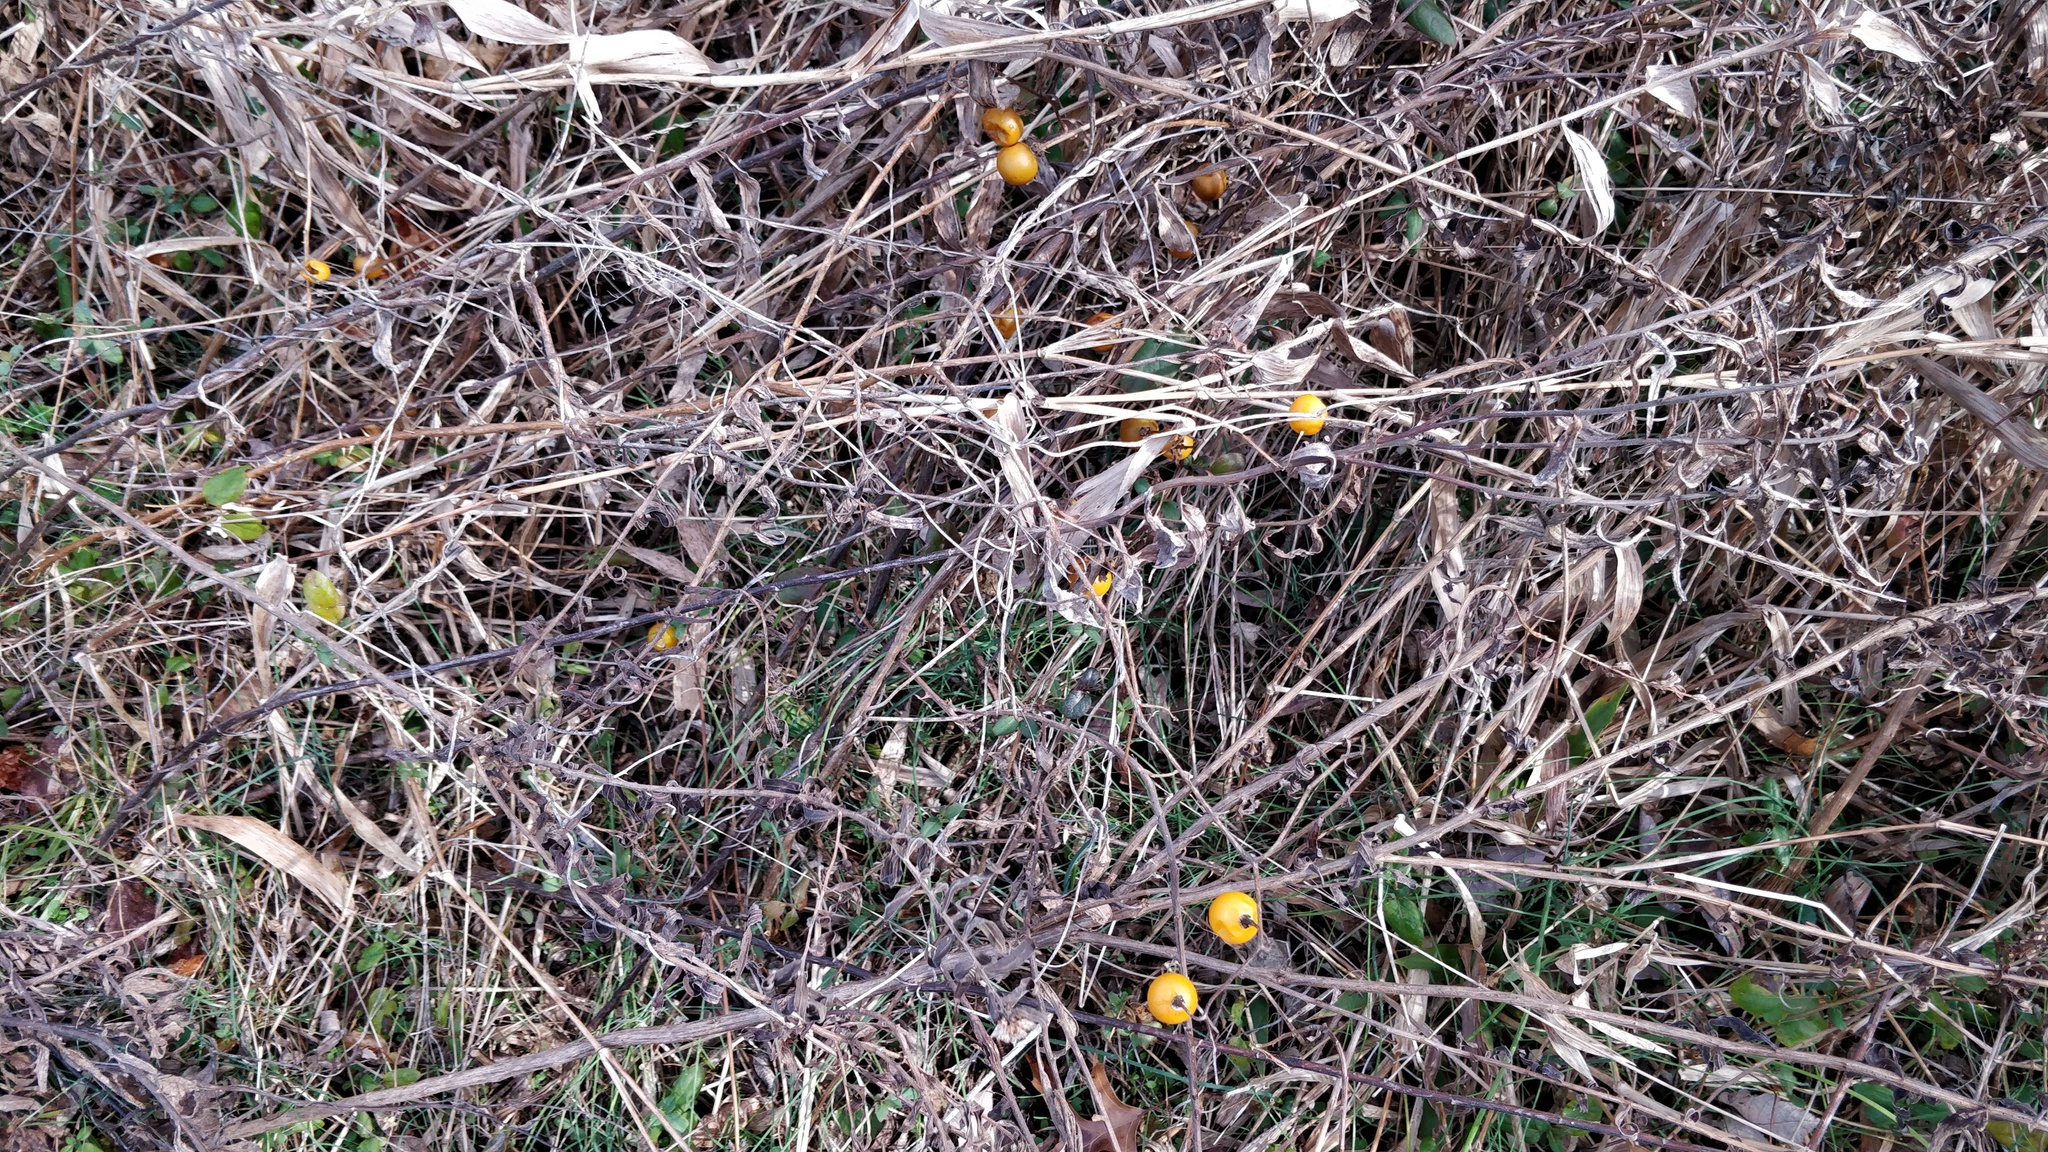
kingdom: Plantae
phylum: Tracheophyta
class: Magnoliopsida
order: Solanales
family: Solanaceae
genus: Solanum
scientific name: Solanum carolinense
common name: Horse-nettle
